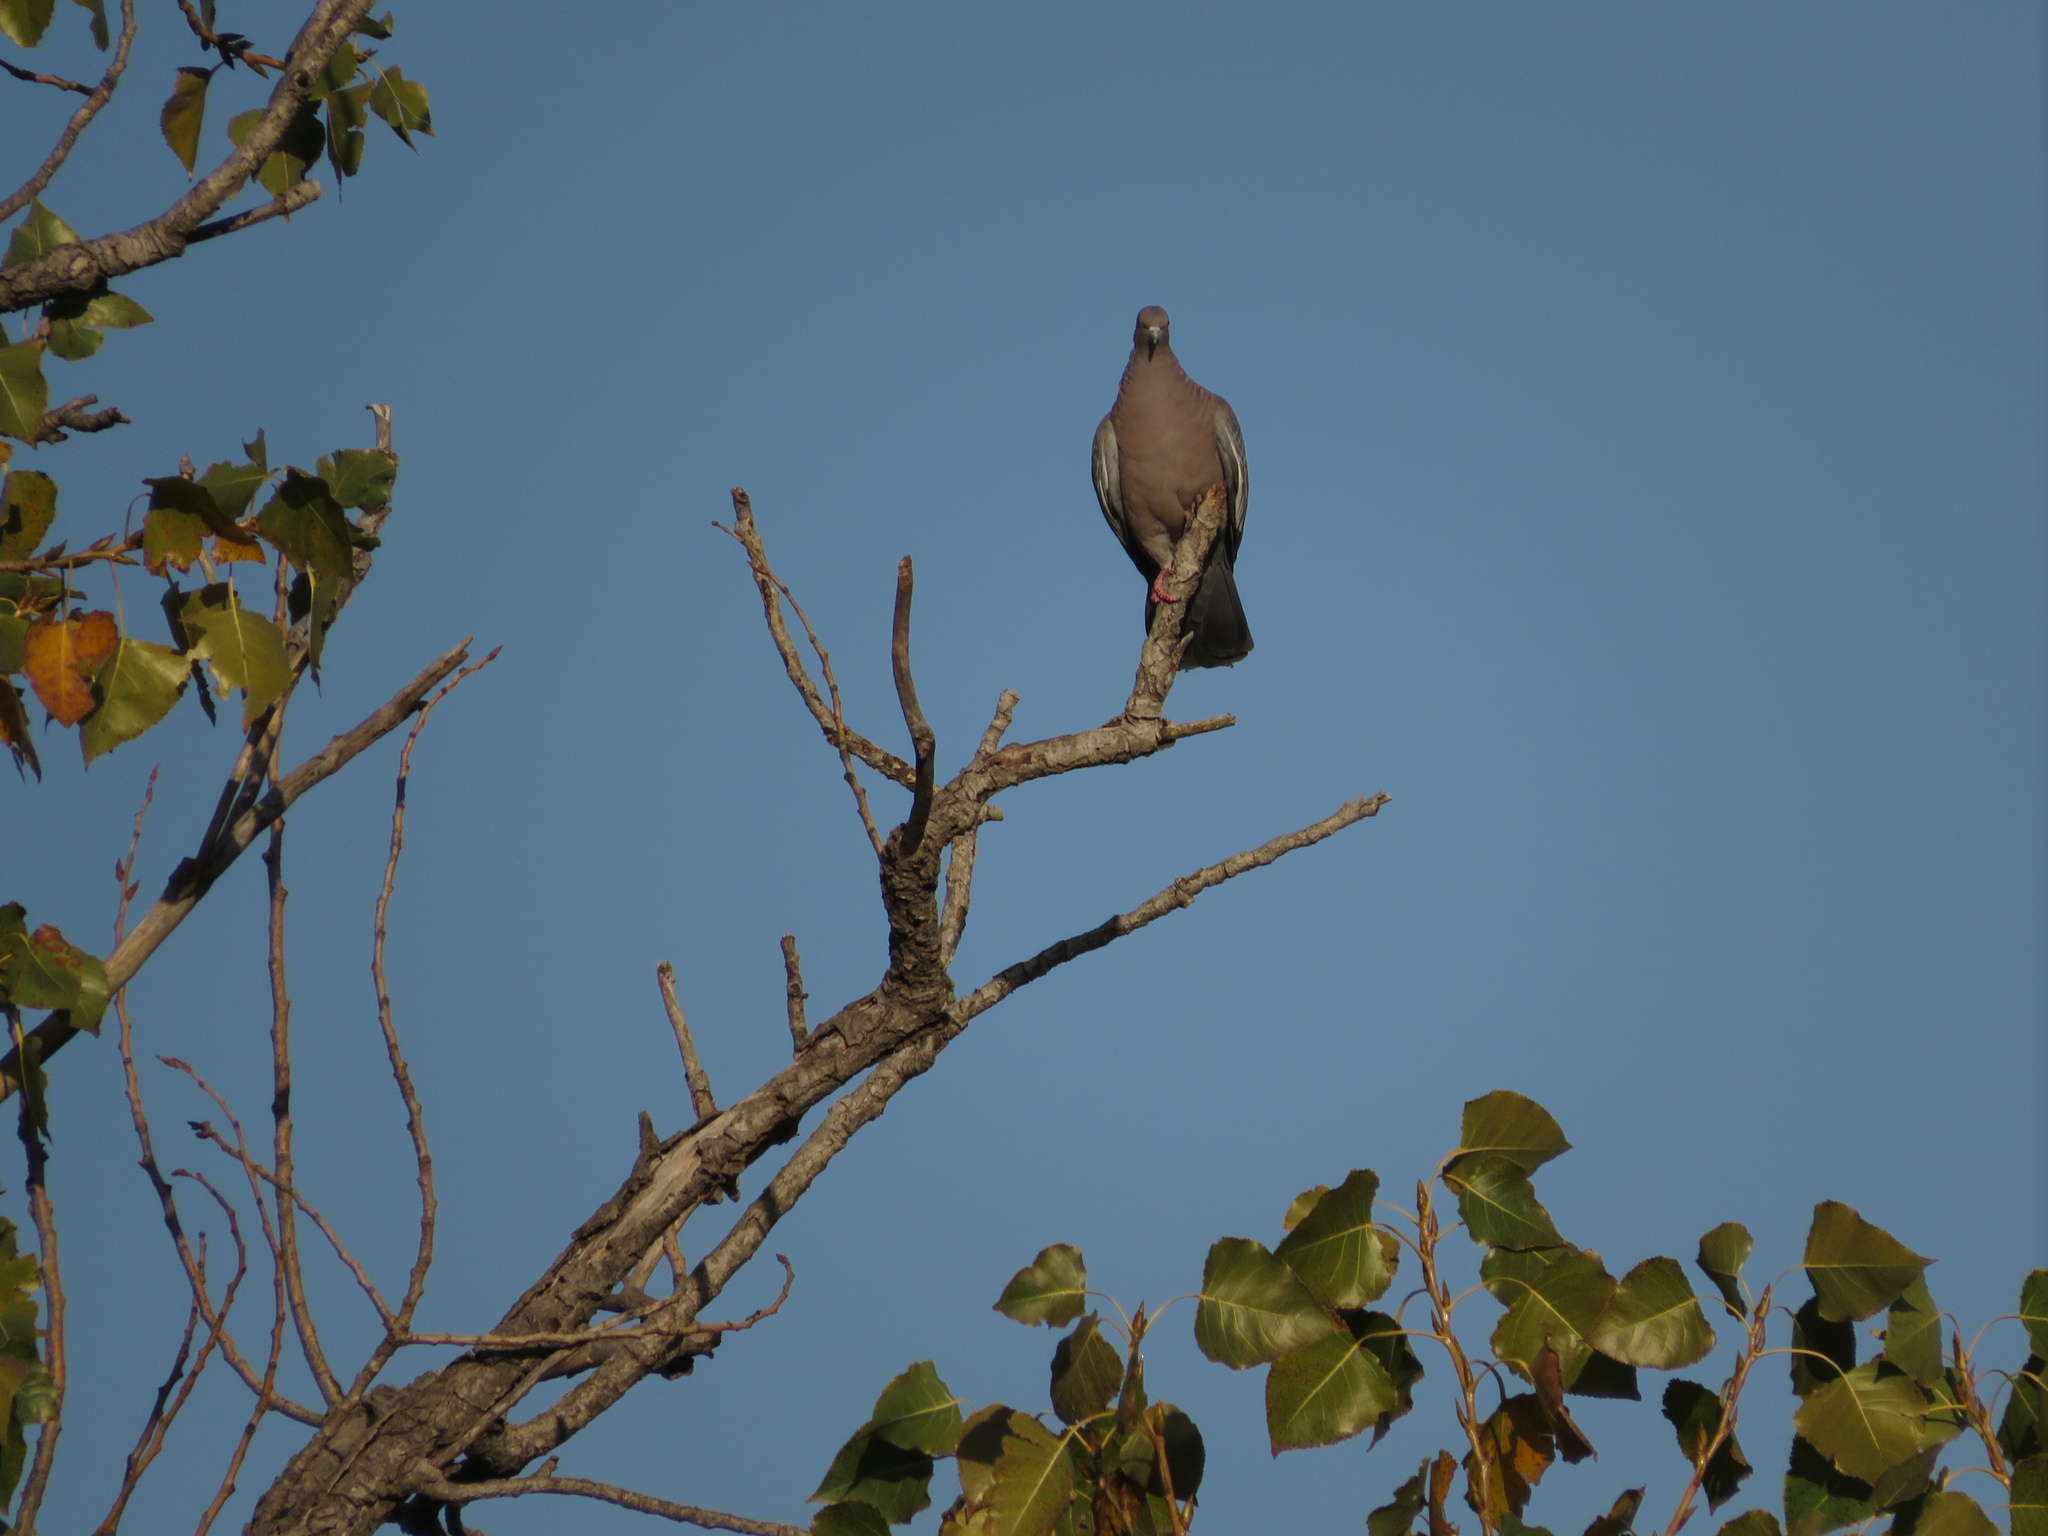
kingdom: Animalia
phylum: Chordata
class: Aves
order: Columbiformes
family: Columbidae
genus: Patagioenas
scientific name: Patagioenas picazuro
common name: Picazuro pigeon
